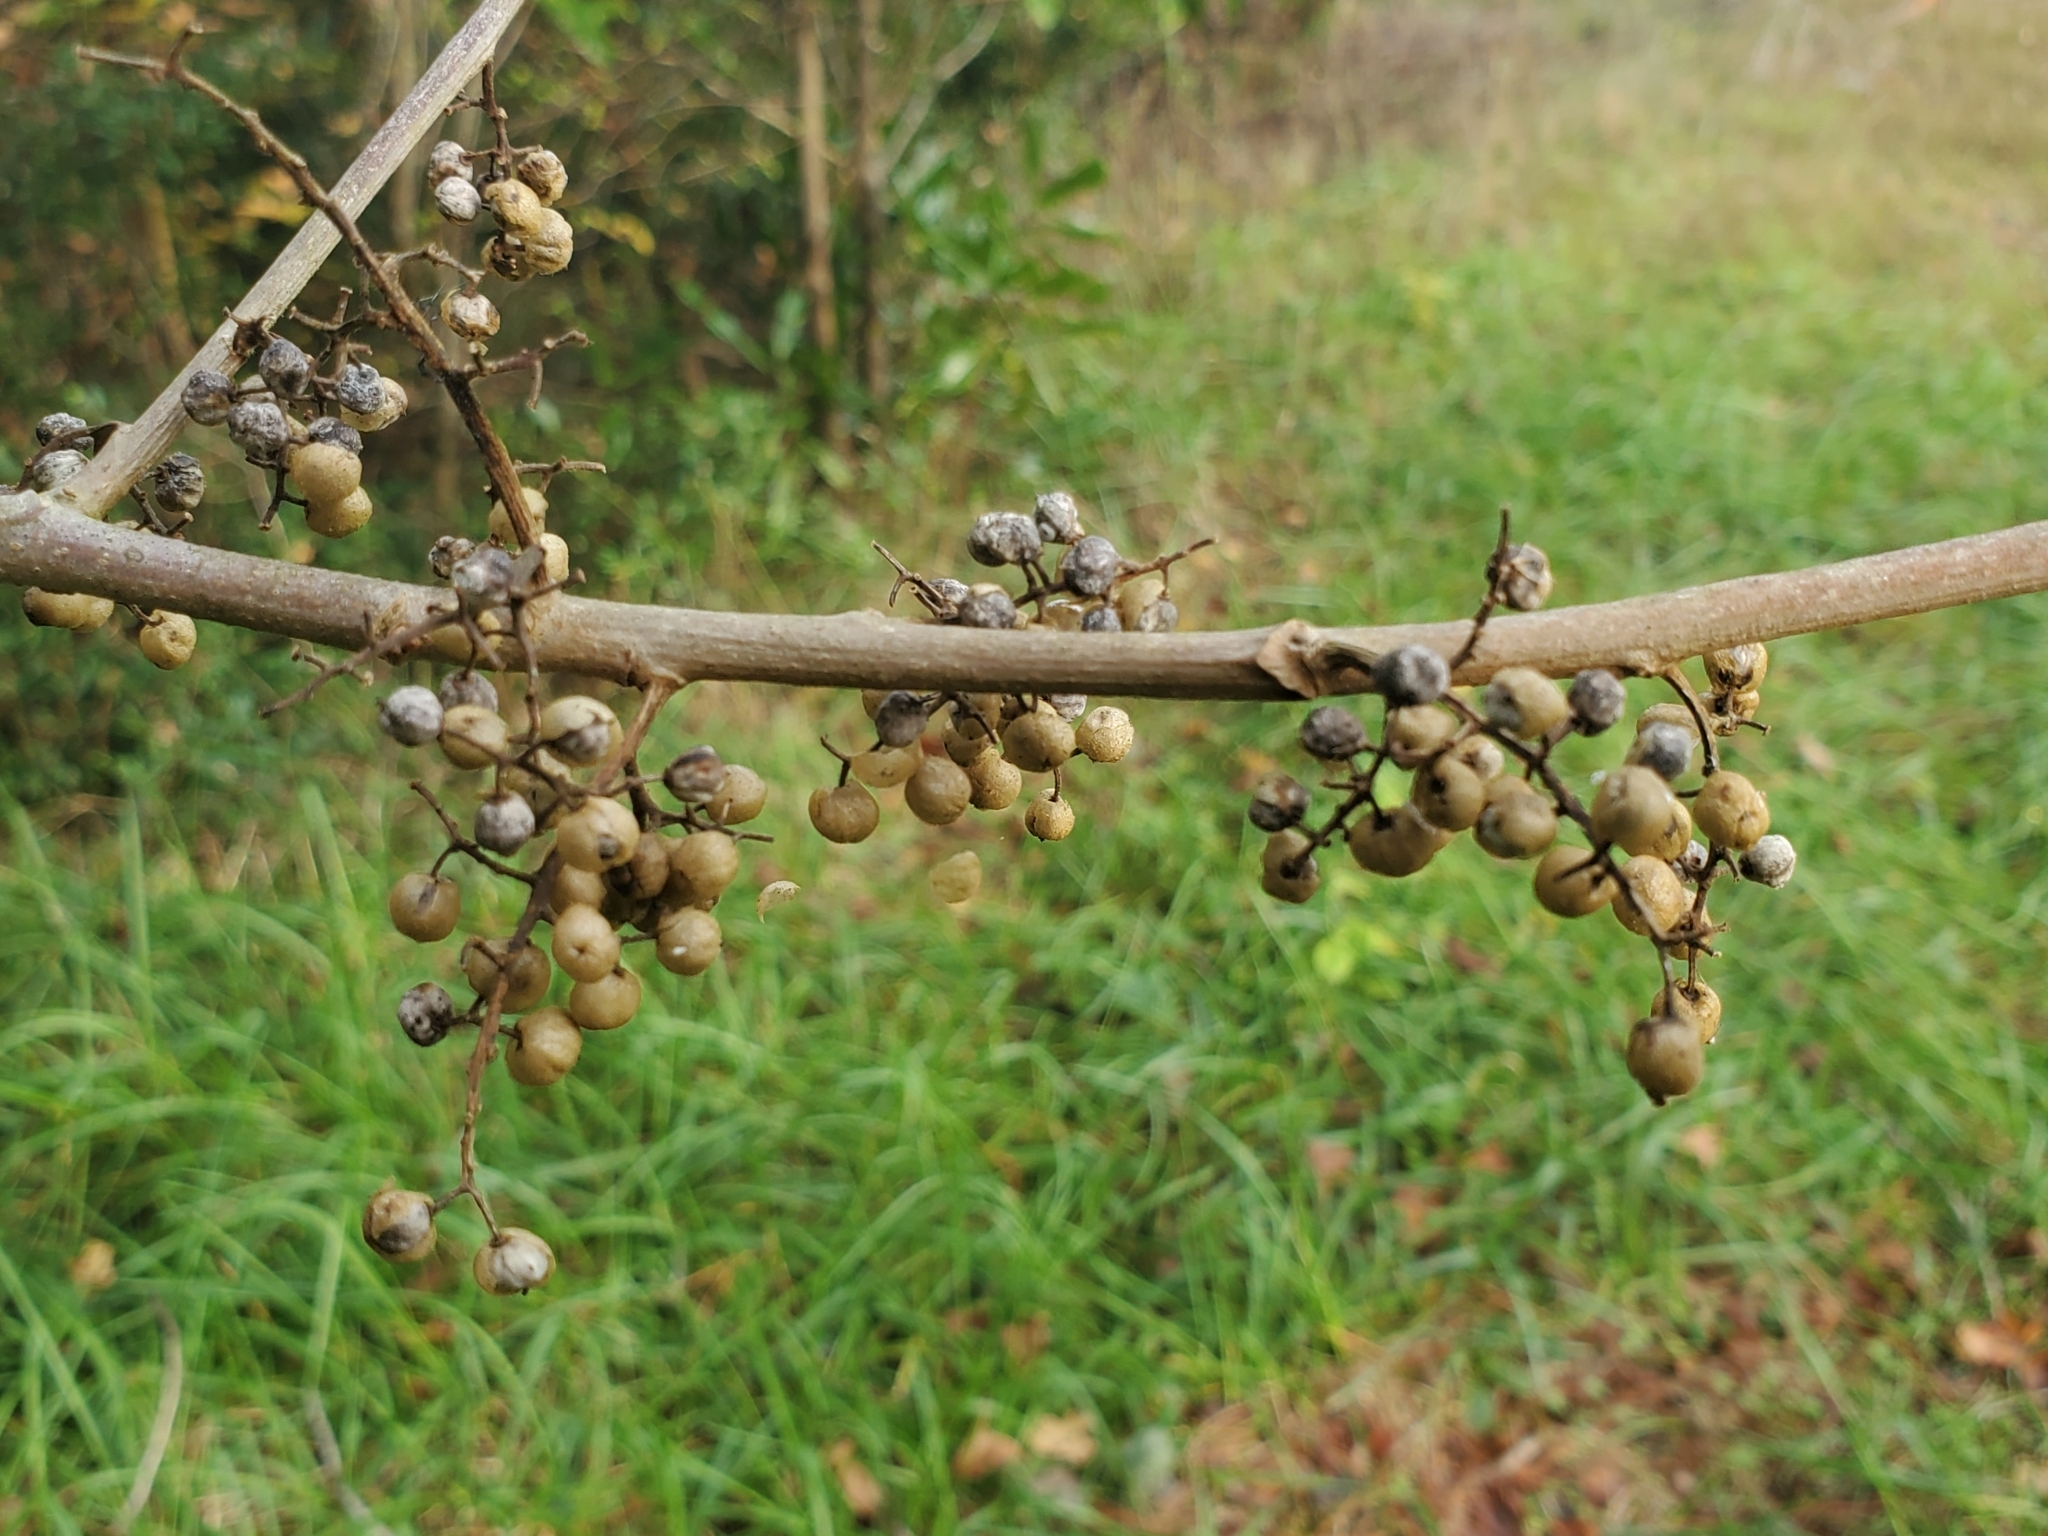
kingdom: Plantae
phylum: Tracheophyta
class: Magnoliopsida
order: Sapindales
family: Anacardiaceae
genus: Toxicodendron
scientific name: Toxicodendron radicans
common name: Poison ivy
